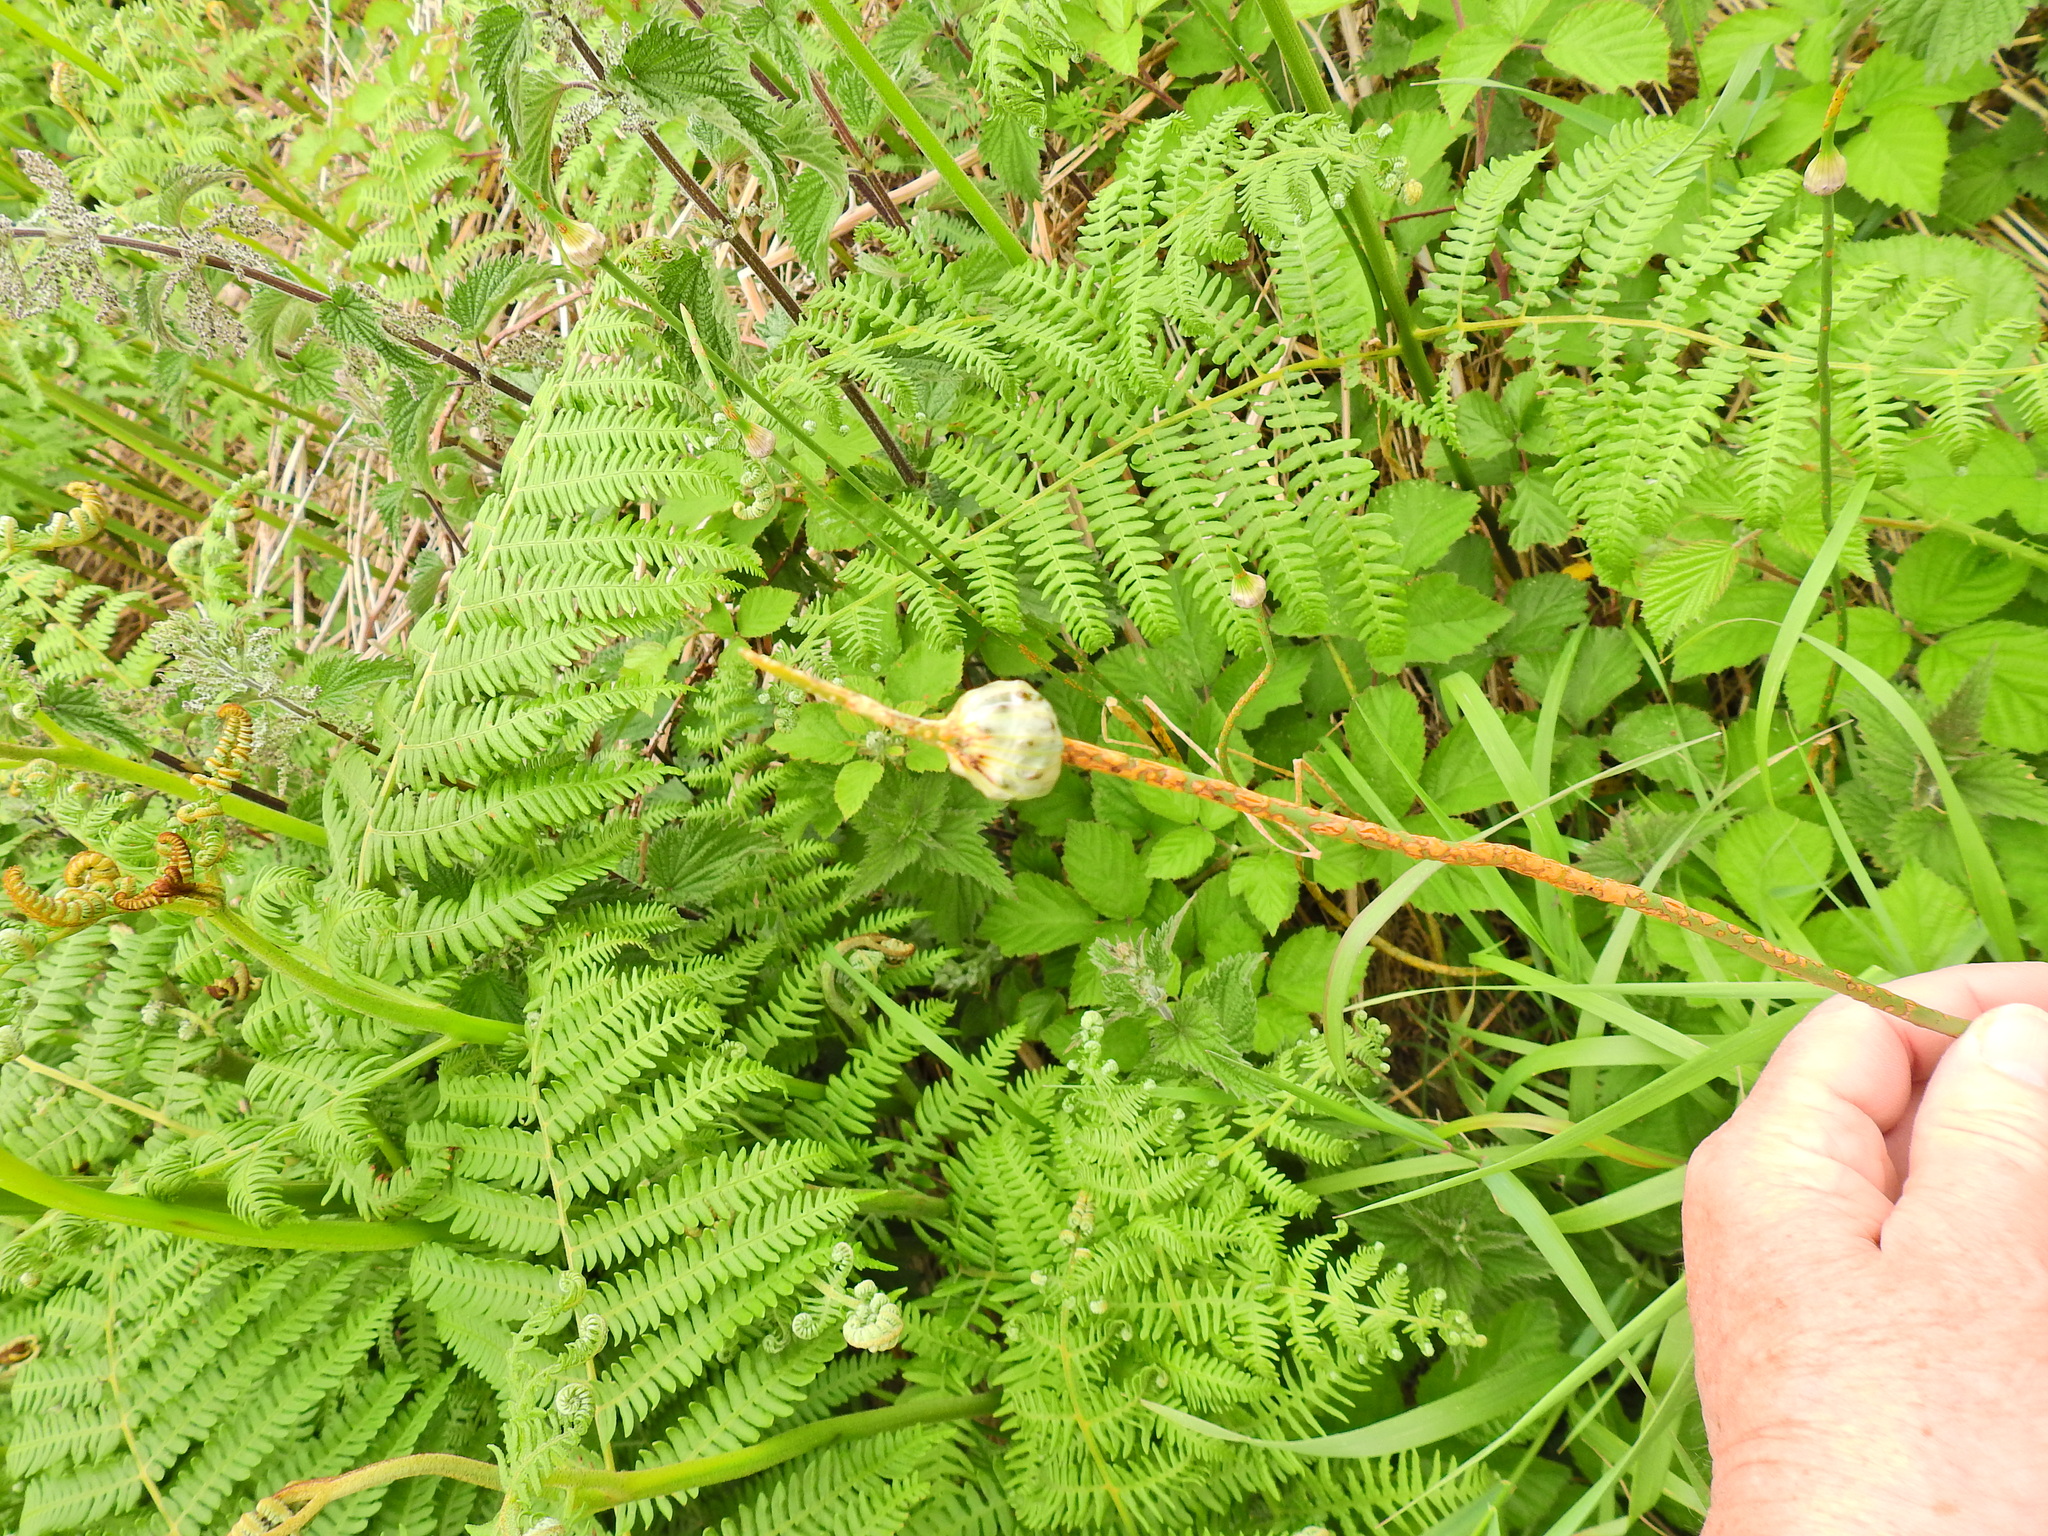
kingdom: Plantae
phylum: Tracheophyta
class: Liliopsida
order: Asparagales
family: Amaryllidaceae
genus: Allium
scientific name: Allium vineale
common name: Crow garlic
